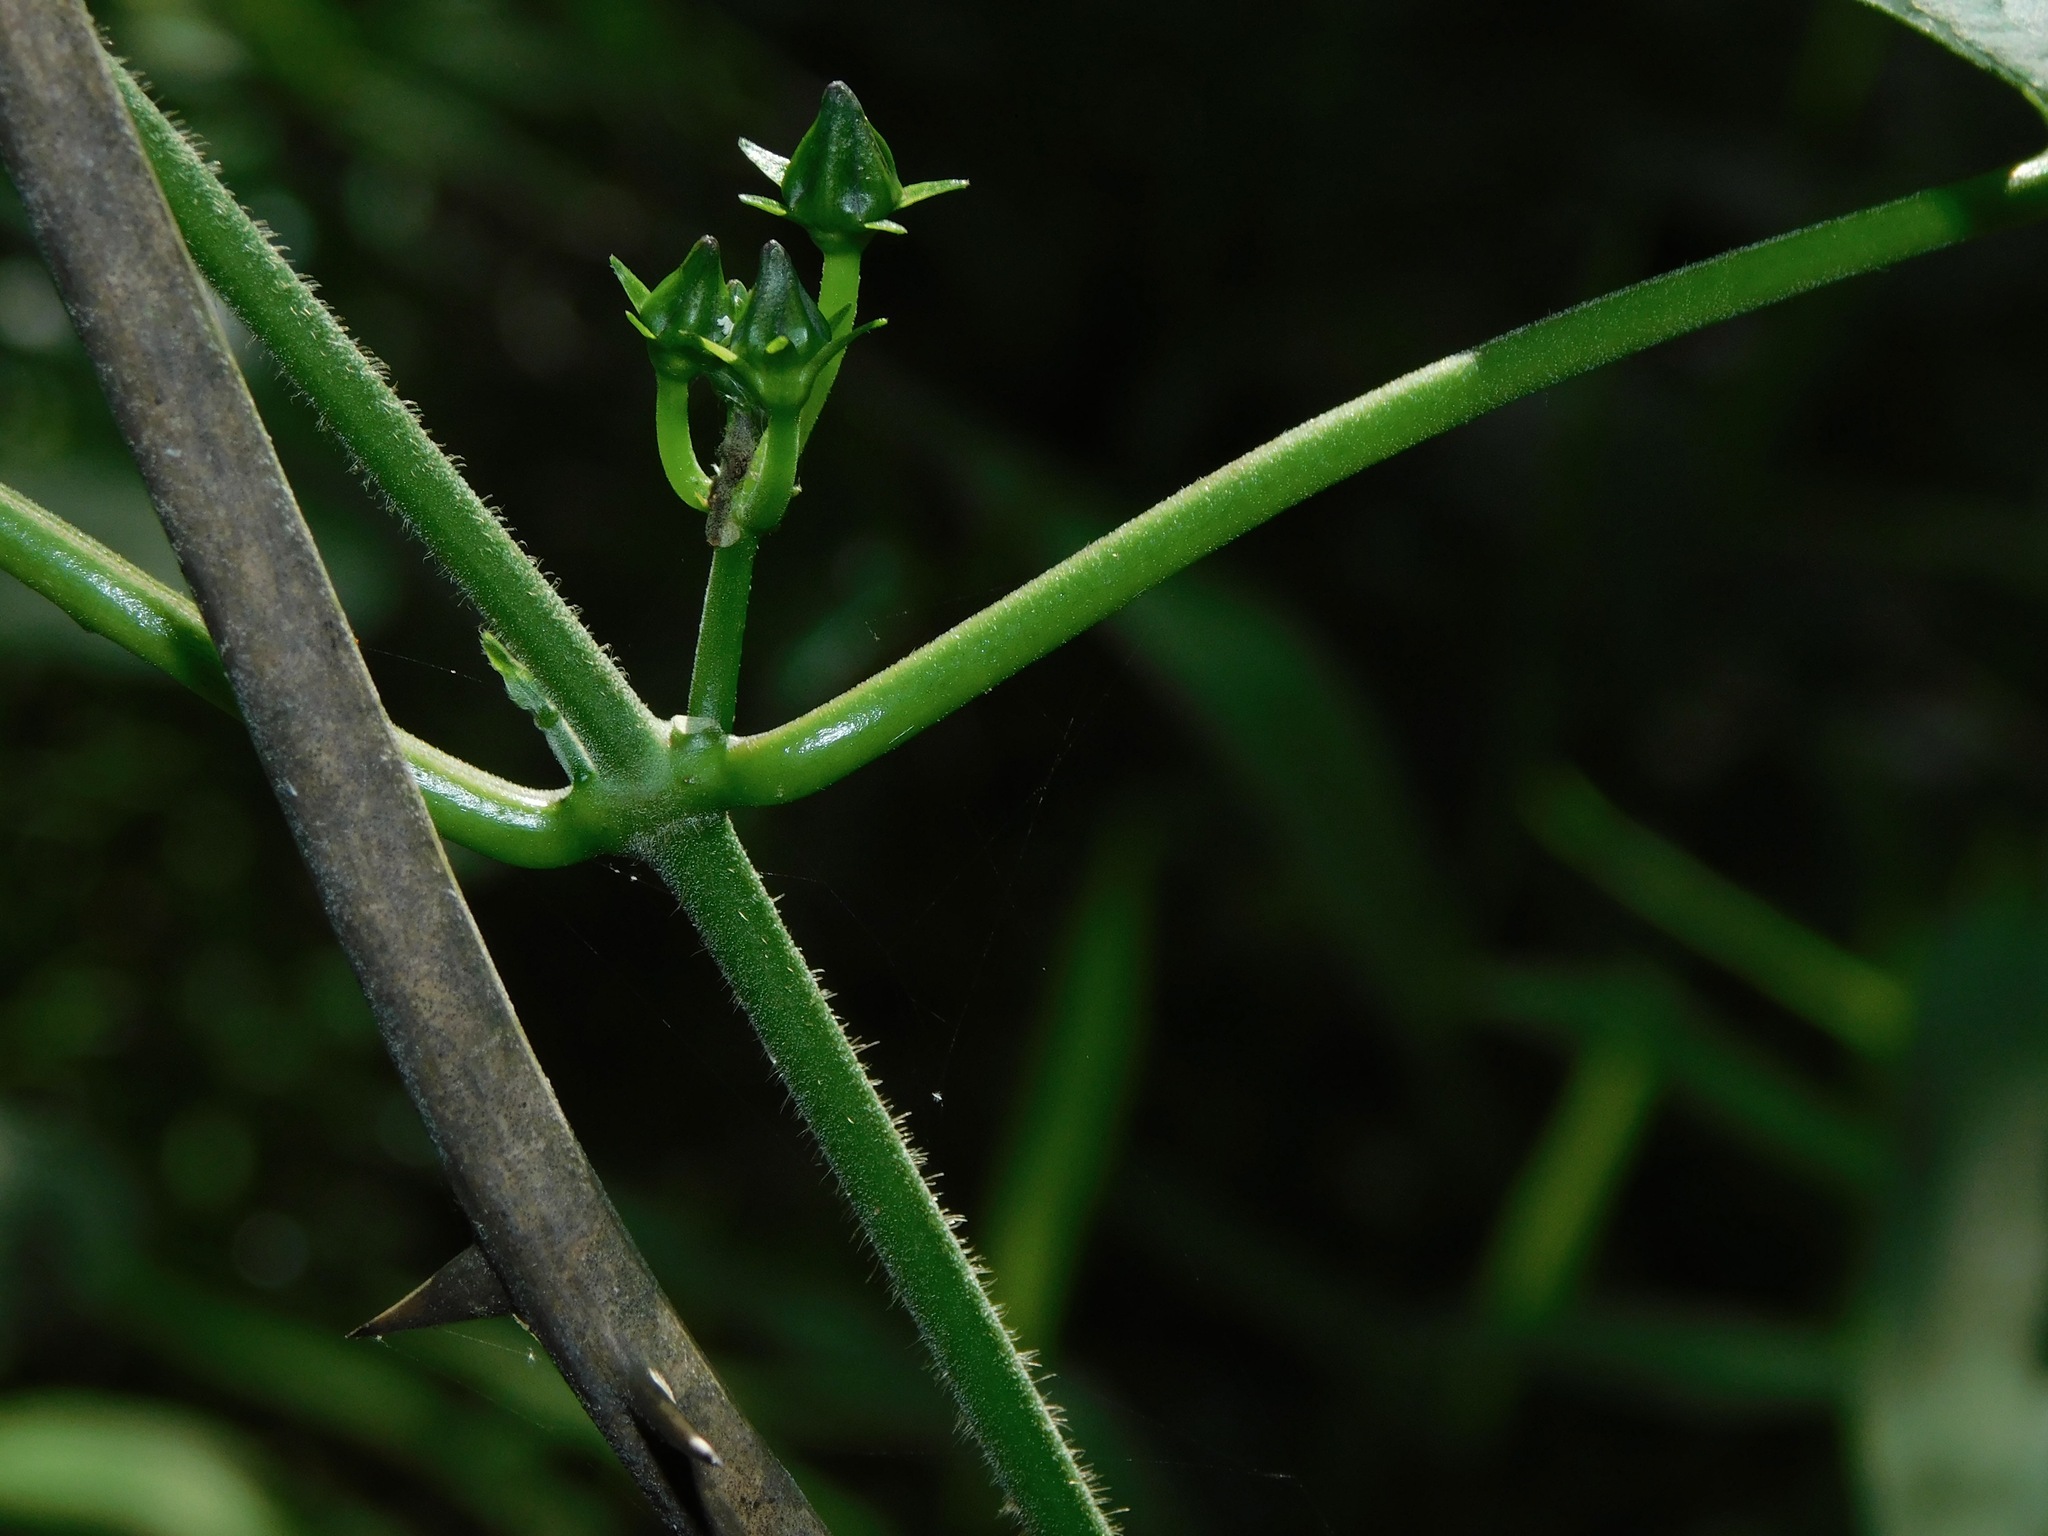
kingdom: Plantae
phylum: Tracheophyta
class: Magnoliopsida
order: Gentianales
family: Apocynaceae
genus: Gonolobus
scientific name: Gonolobus suberosus
